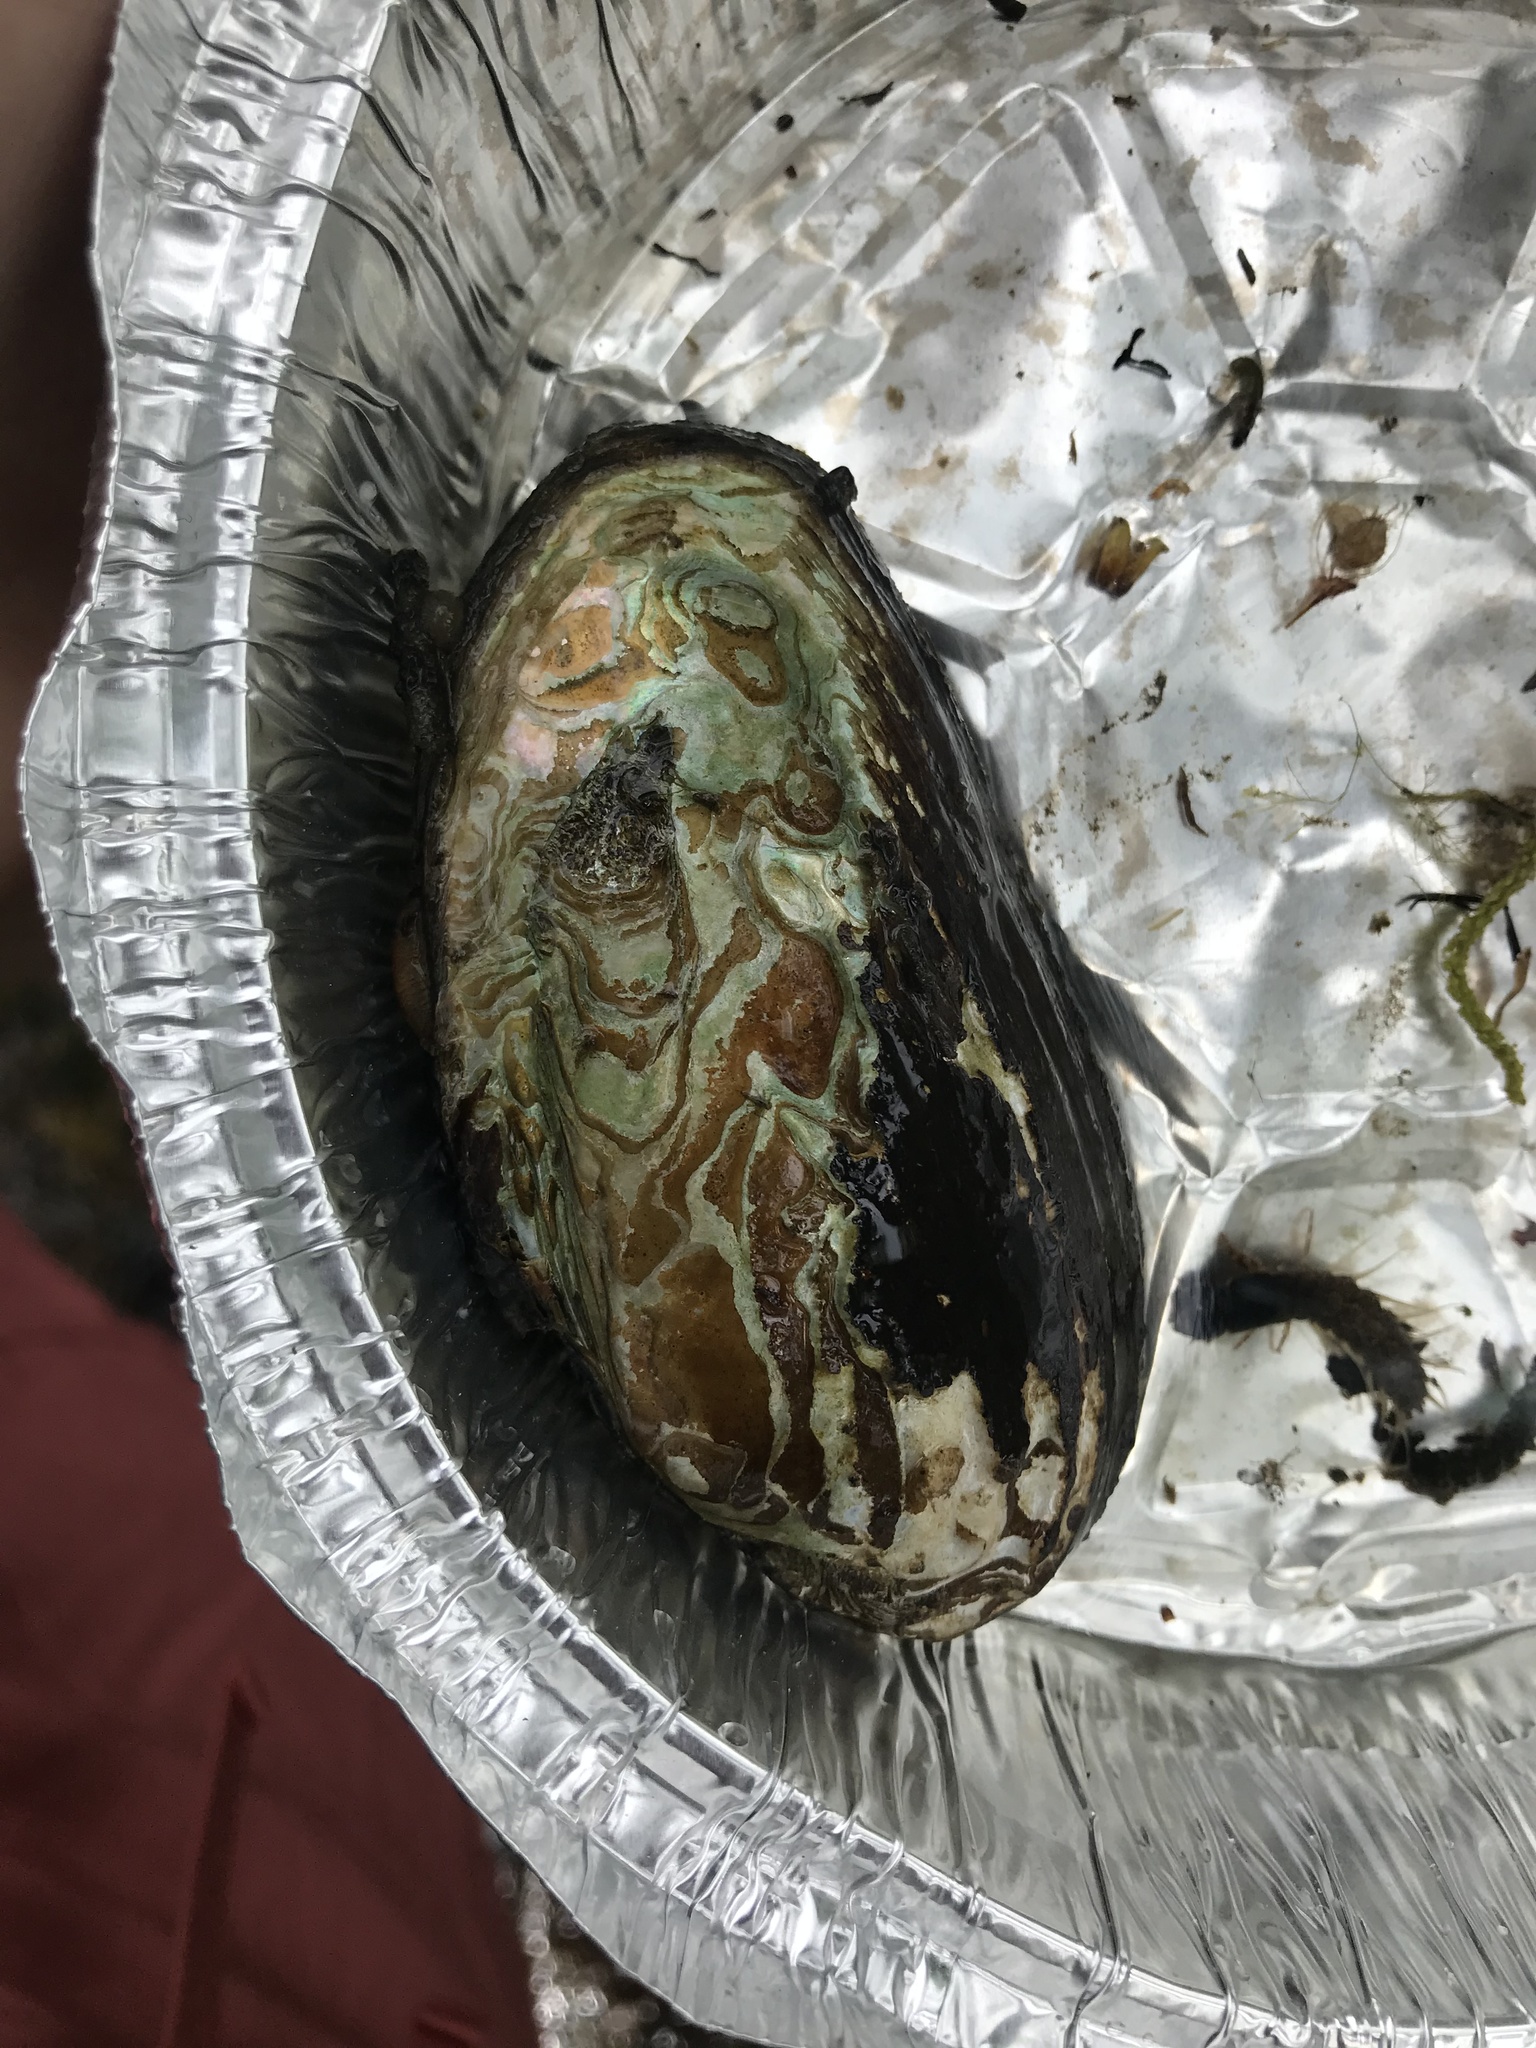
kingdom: Animalia
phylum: Mollusca
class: Bivalvia
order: Unionida
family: Unionidae
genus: Elliptio
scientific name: Elliptio complanata
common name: Eastern elliptio
